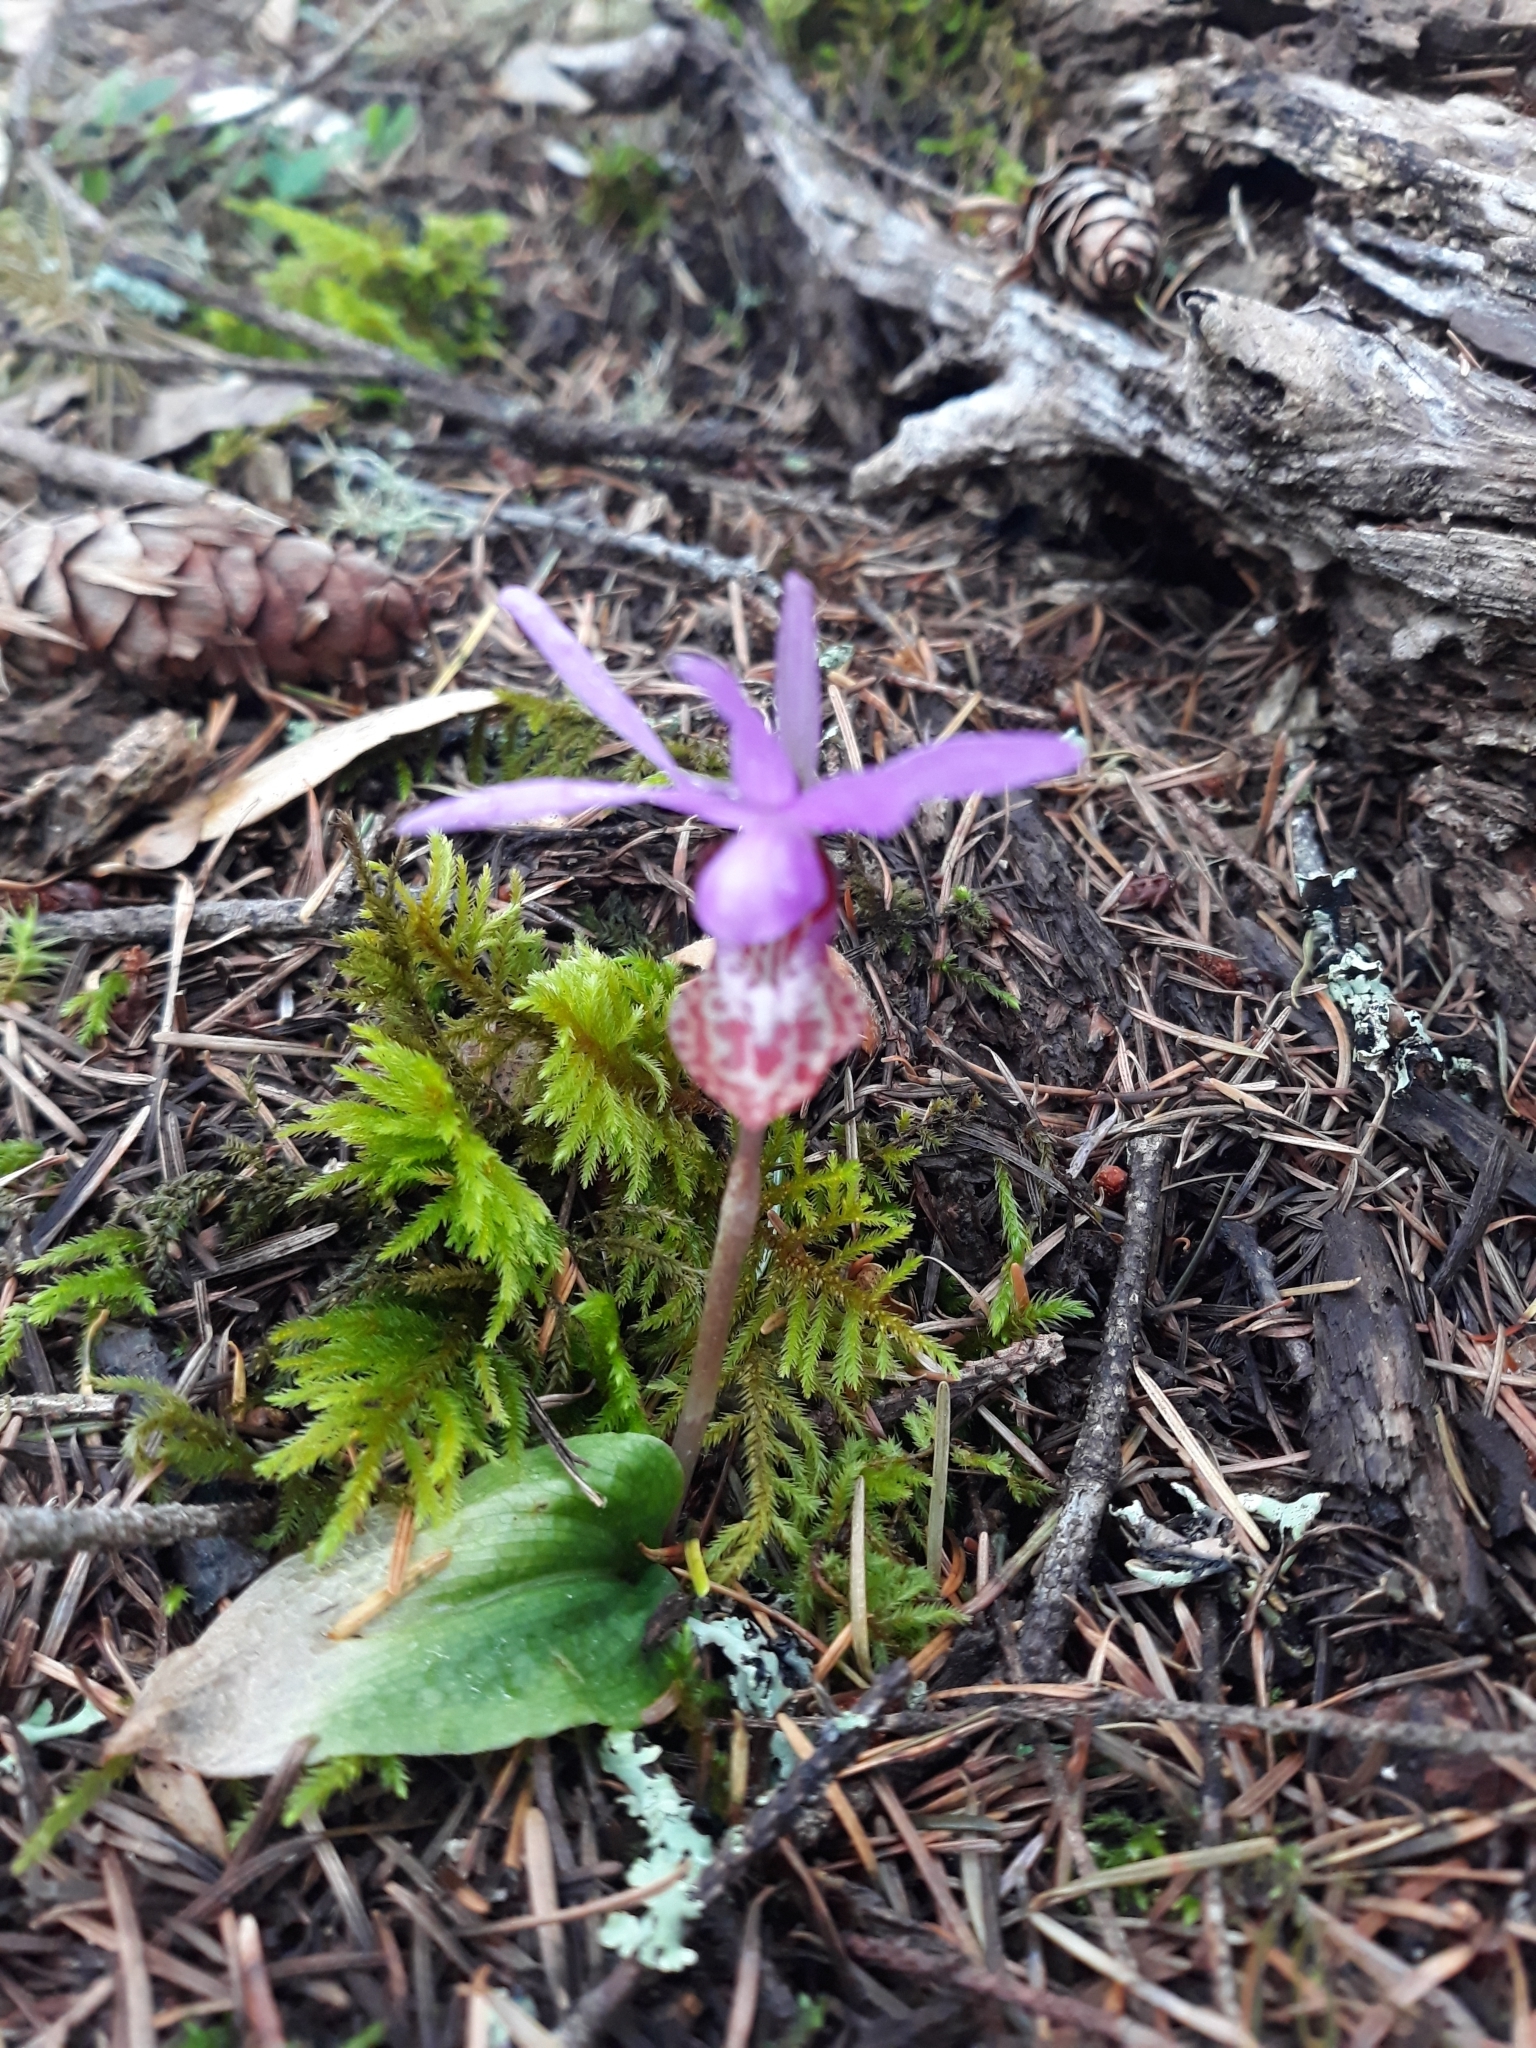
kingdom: Plantae
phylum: Tracheophyta
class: Liliopsida
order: Asparagales
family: Orchidaceae
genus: Calypso
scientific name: Calypso bulbosa
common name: Calypso
